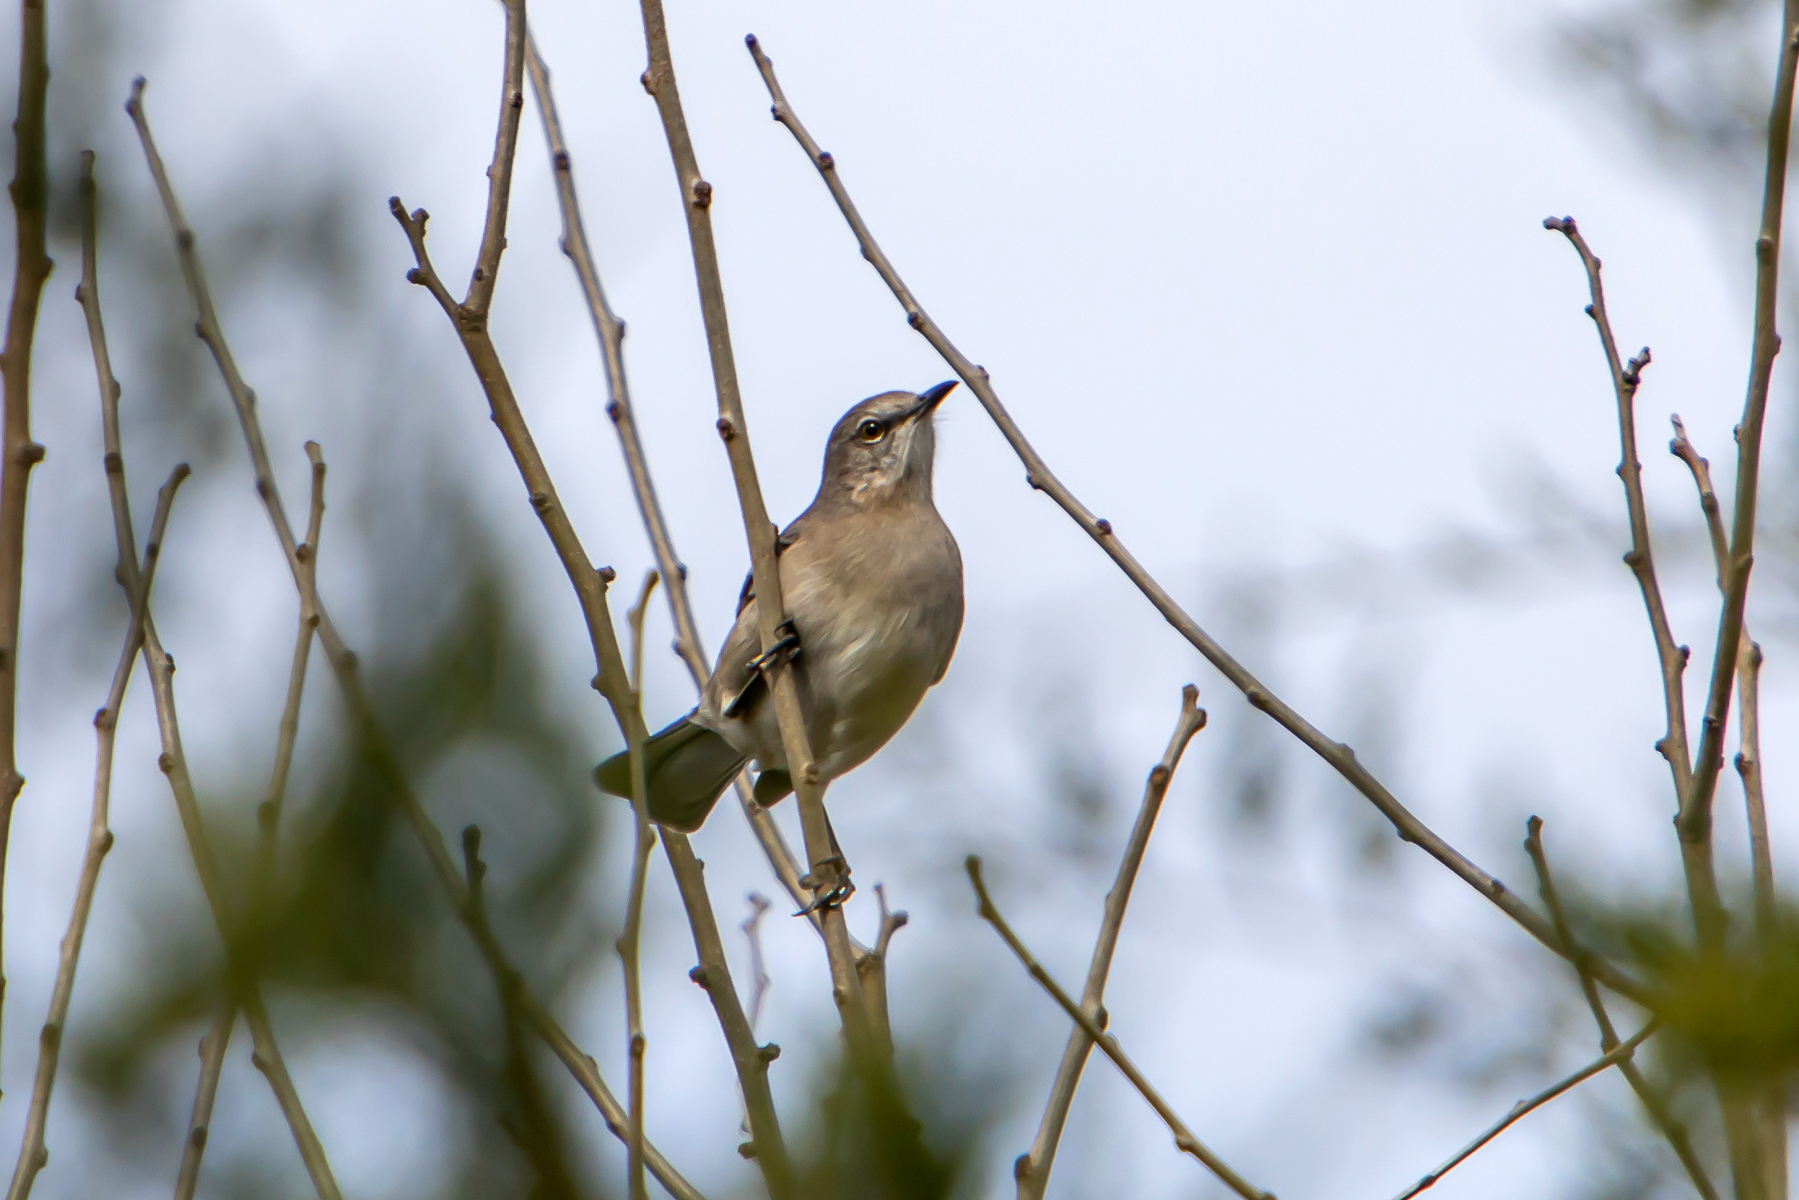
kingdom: Animalia
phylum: Chordata
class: Aves
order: Passeriformes
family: Mimidae
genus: Mimus
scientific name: Mimus polyglottos
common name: Northern mockingbird
